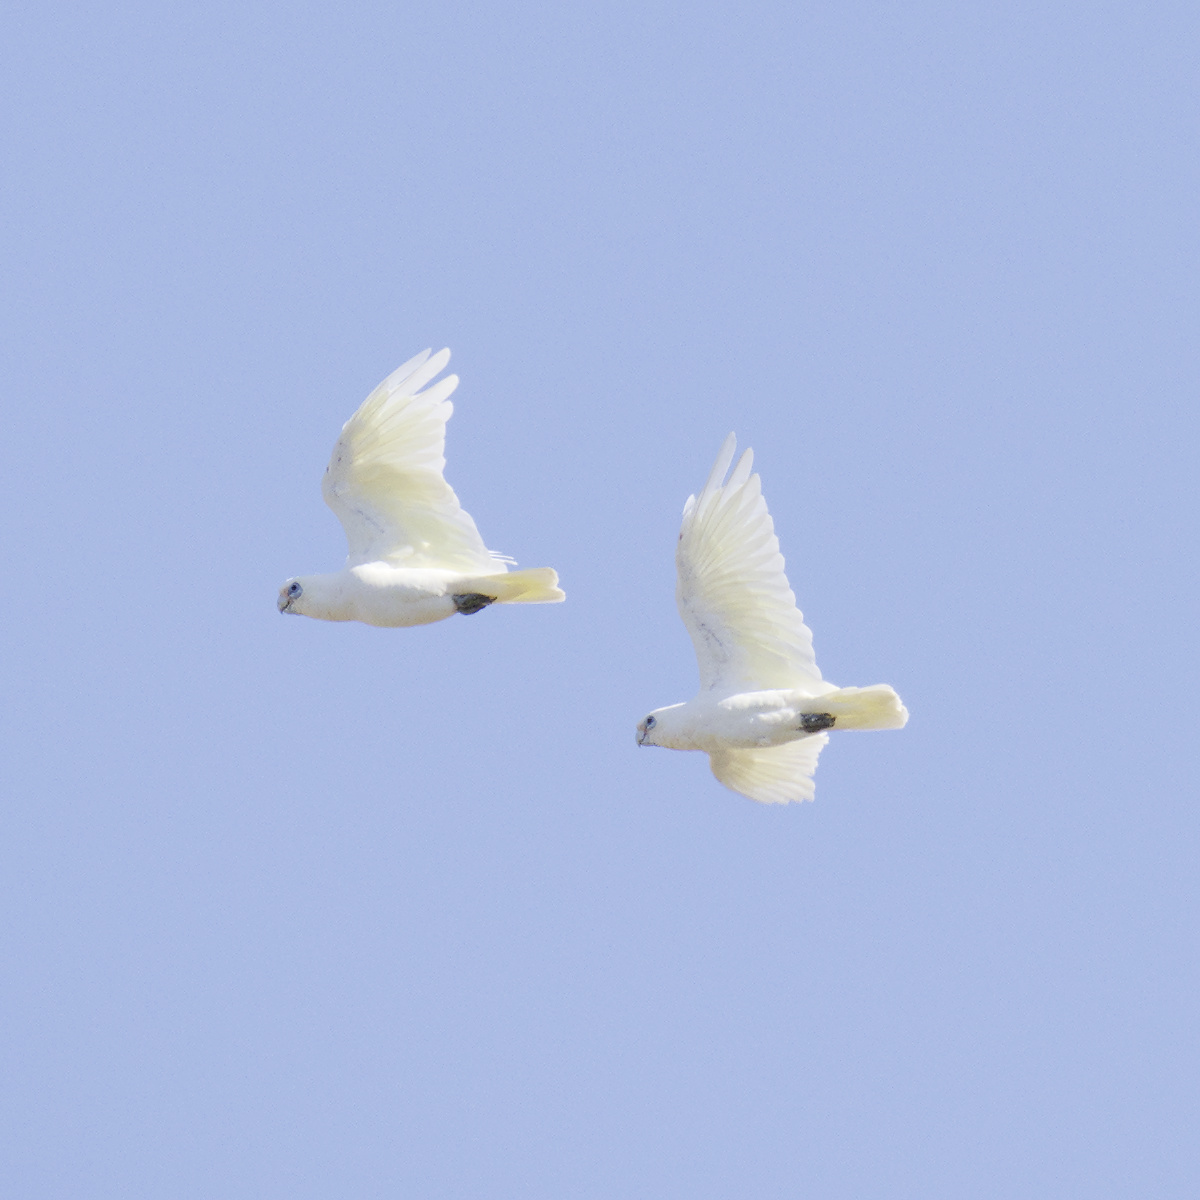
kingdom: Animalia
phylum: Chordata
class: Aves
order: Psittaciformes
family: Psittacidae
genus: Cacatua
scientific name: Cacatua sanguinea
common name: Little corella
